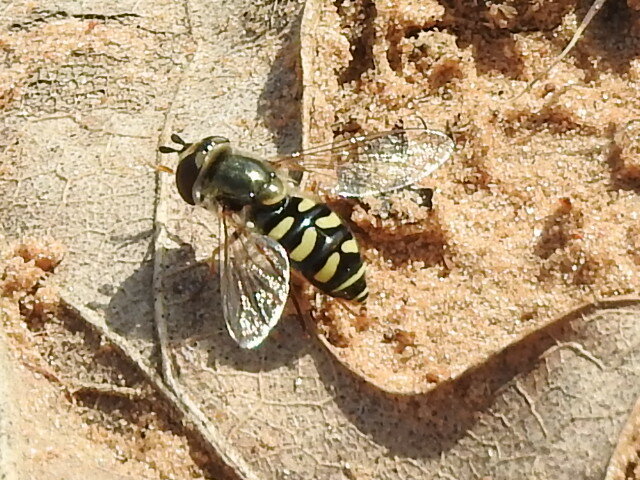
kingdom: Animalia
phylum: Arthropoda
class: Insecta
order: Diptera
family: Syrphidae
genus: Eupeodes
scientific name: Eupeodes volucris
